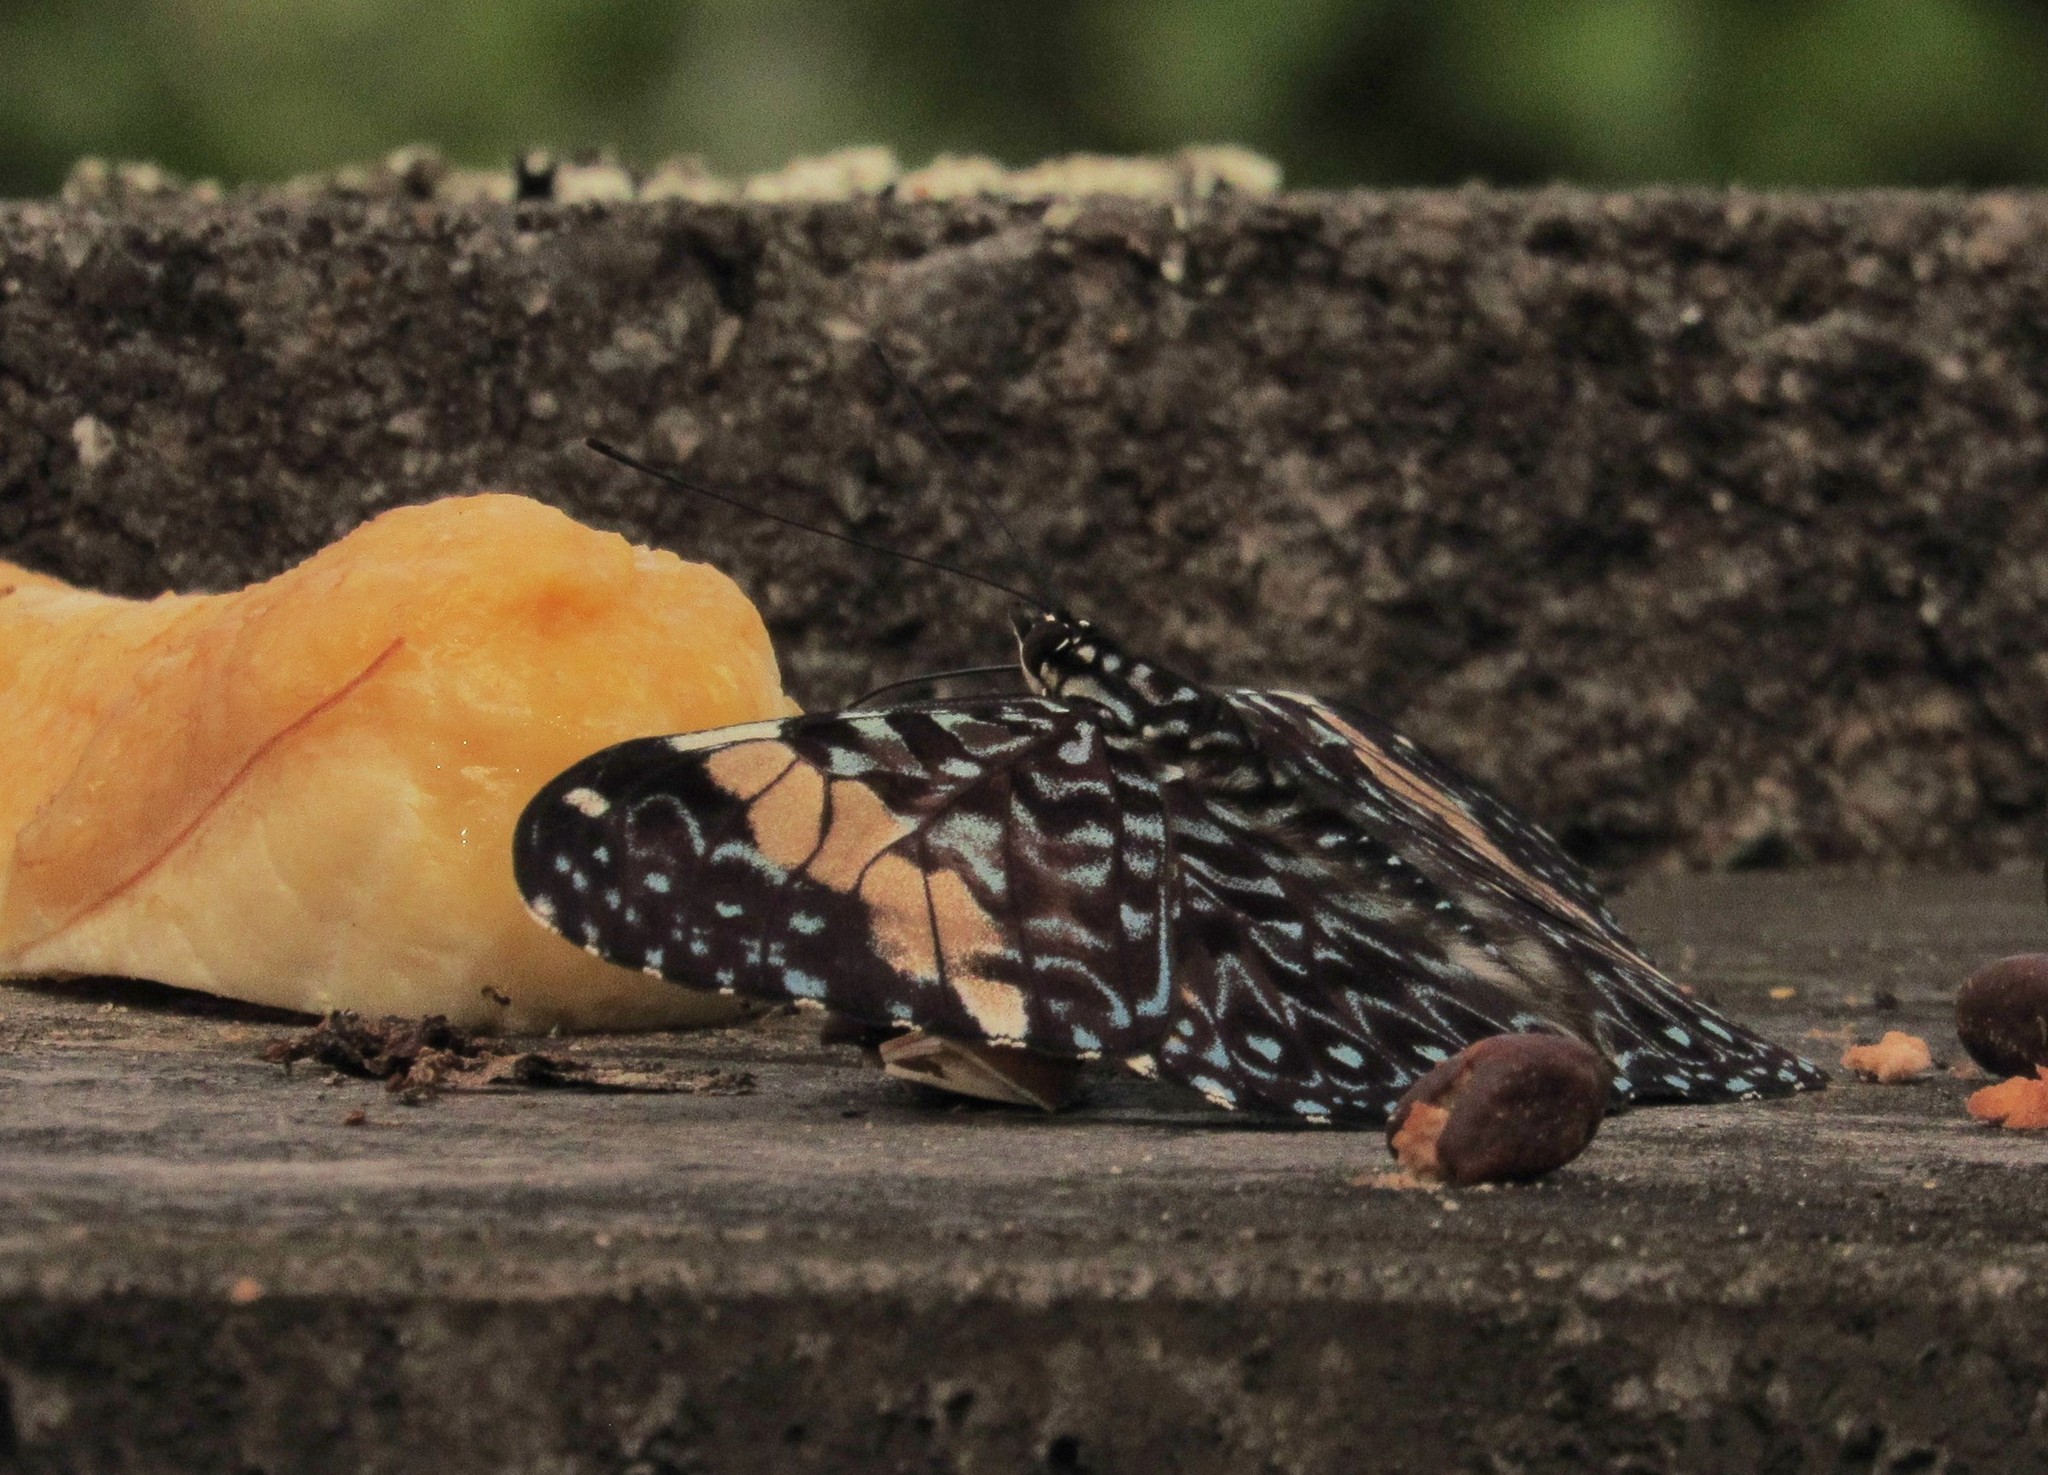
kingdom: Animalia
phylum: Arthropoda
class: Insecta
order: Lepidoptera
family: Nymphalidae
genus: Hamadryas
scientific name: Hamadryas amphinome
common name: Red cracker
